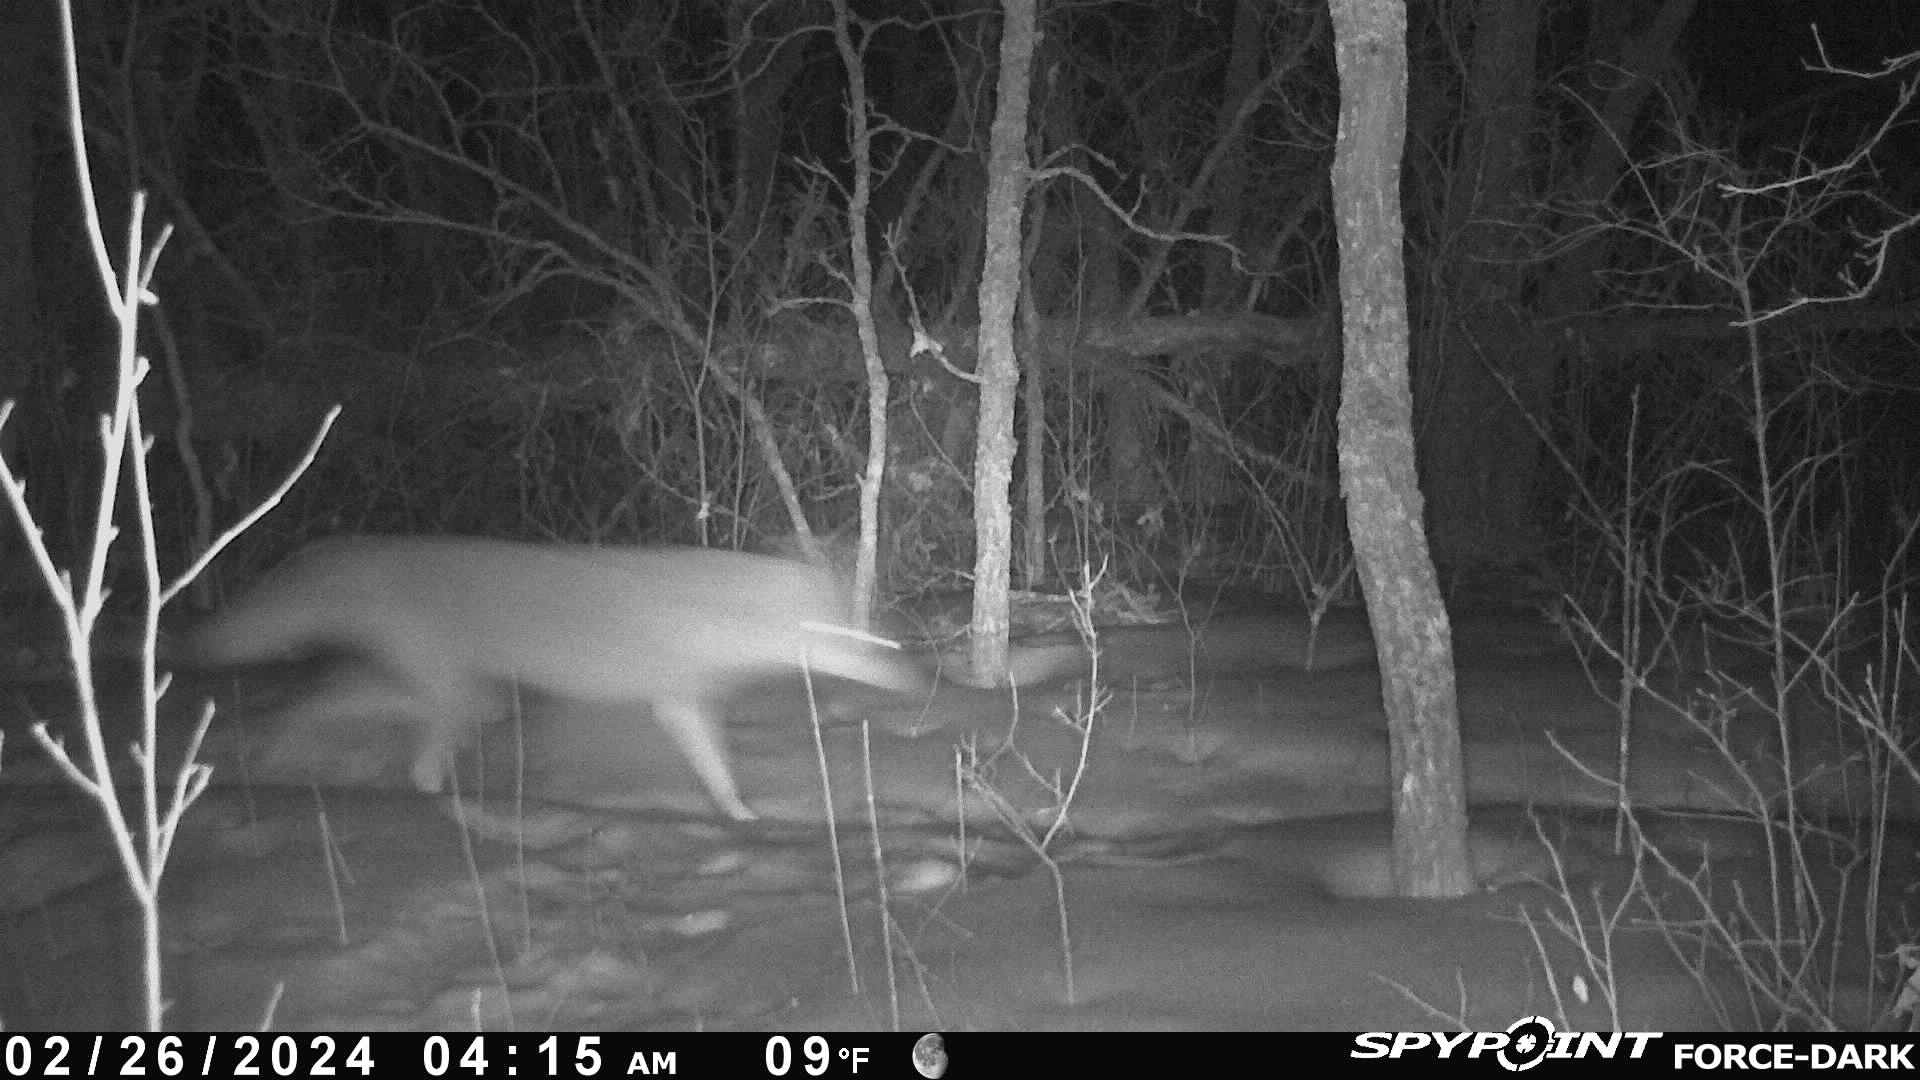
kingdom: Animalia
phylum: Chordata
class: Mammalia
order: Carnivora
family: Canidae
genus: Canis
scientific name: Canis latrans
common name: Coyote
